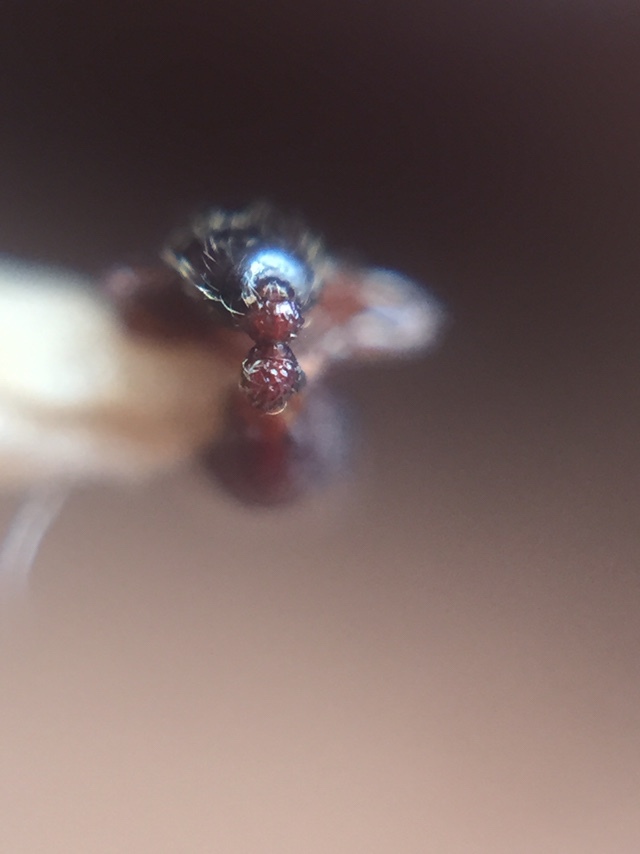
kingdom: Animalia
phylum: Arthropoda
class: Insecta
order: Hymenoptera
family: Formicidae
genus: Tetramorium
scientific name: Tetramorium lanuginosum
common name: Ant
